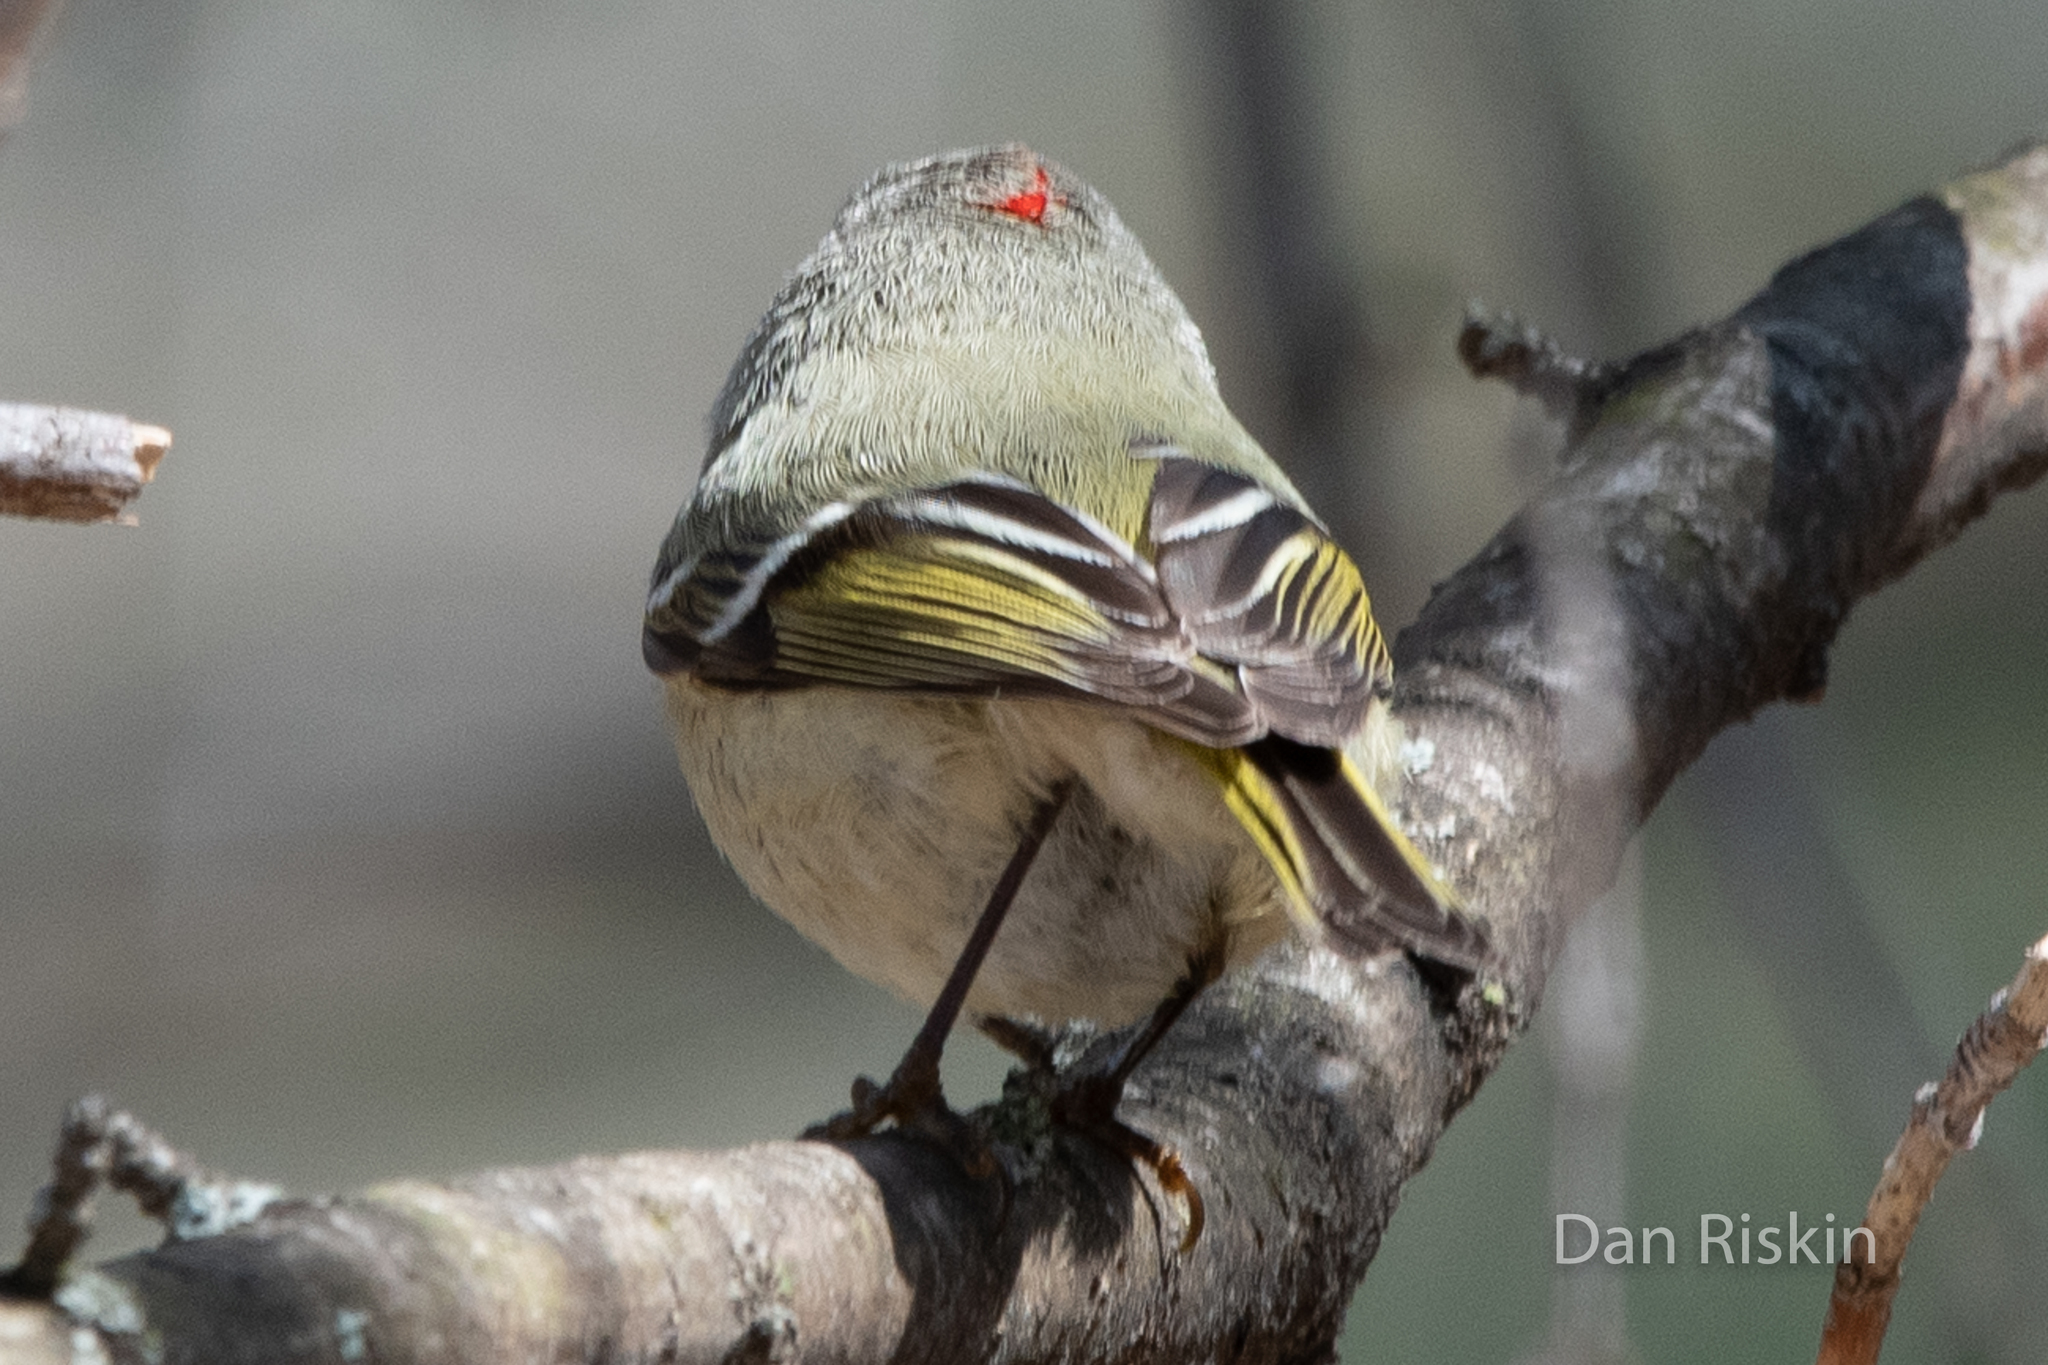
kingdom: Animalia
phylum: Chordata
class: Aves
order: Passeriformes
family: Regulidae
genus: Regulus
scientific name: Regulus calendula
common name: Ruby-crowned kinglet
